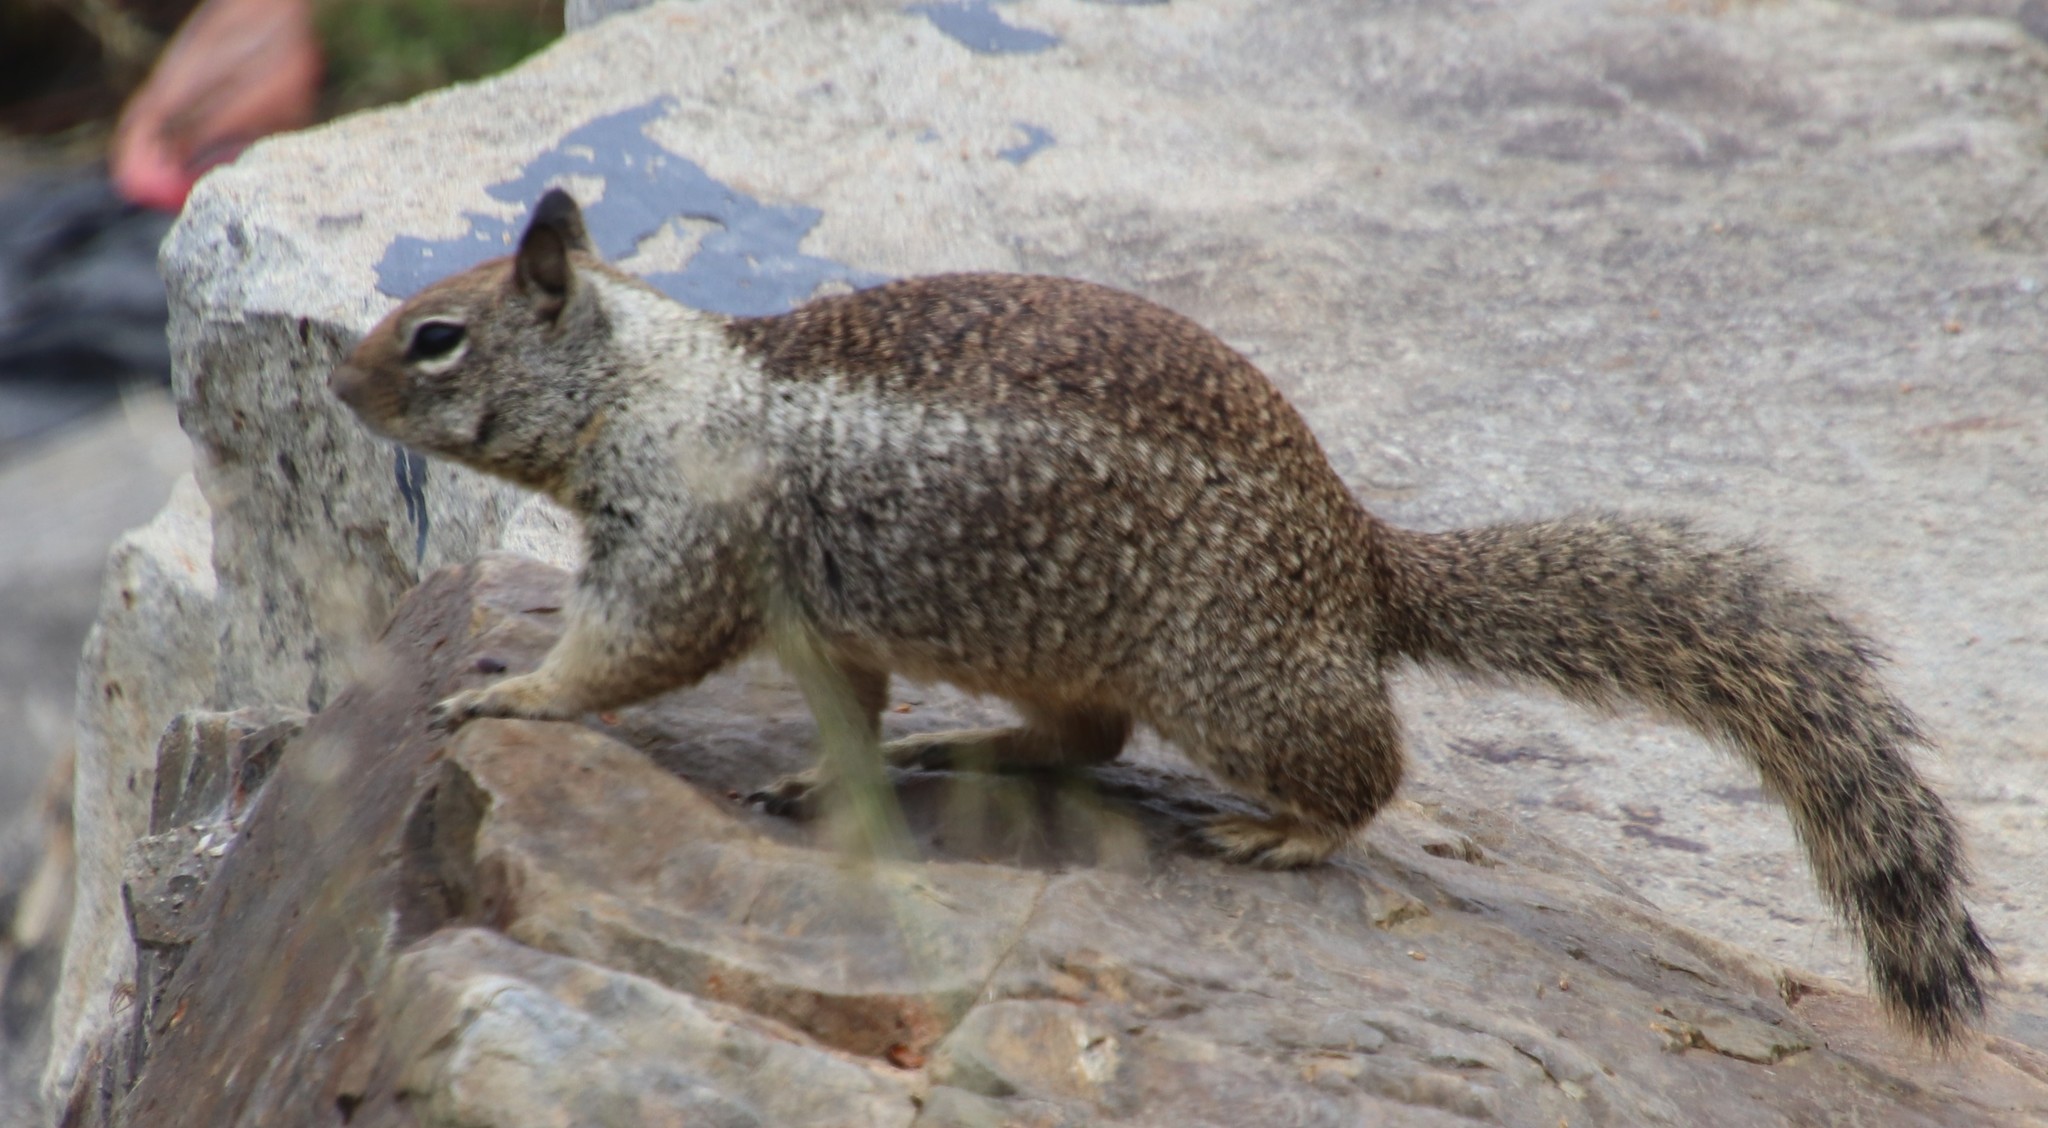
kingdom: Animalia
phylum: Chordata
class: Mammalia
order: Rodentia
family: Sciuridae
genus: Otospermophilus
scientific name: Otospermophilus beecheyi
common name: California ground squirrel
